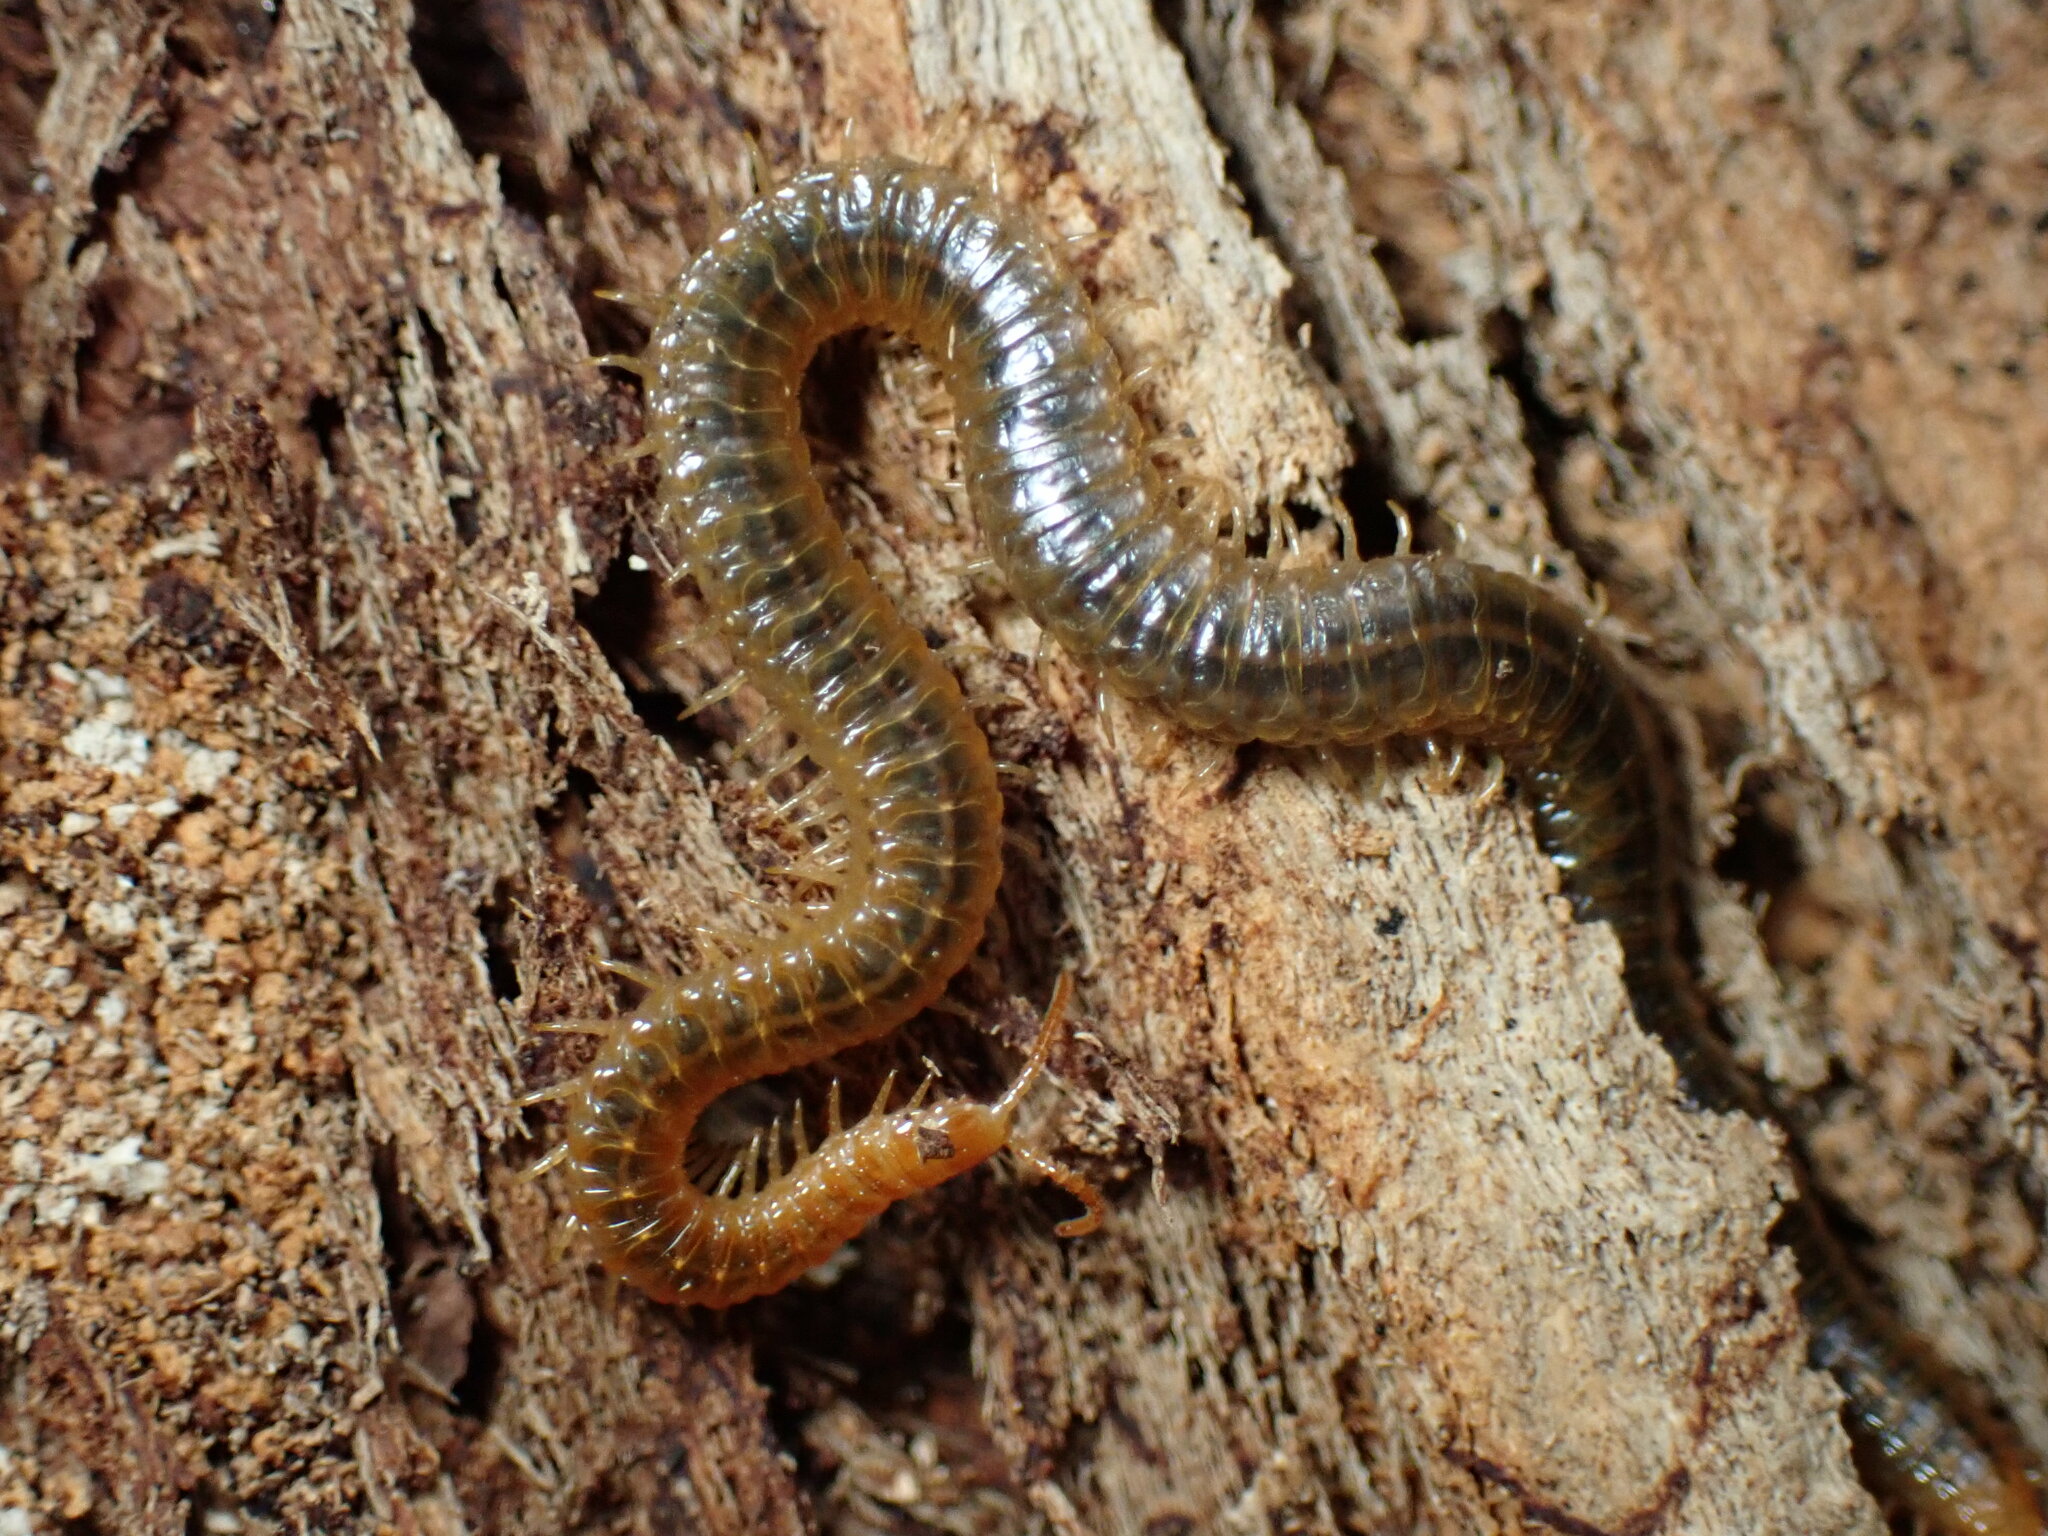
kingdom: Animalia
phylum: Arthropoda
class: Chilopoda
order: Geophilomorpha
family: Dignathodontidae
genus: Henia
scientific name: Henia vesuviana
